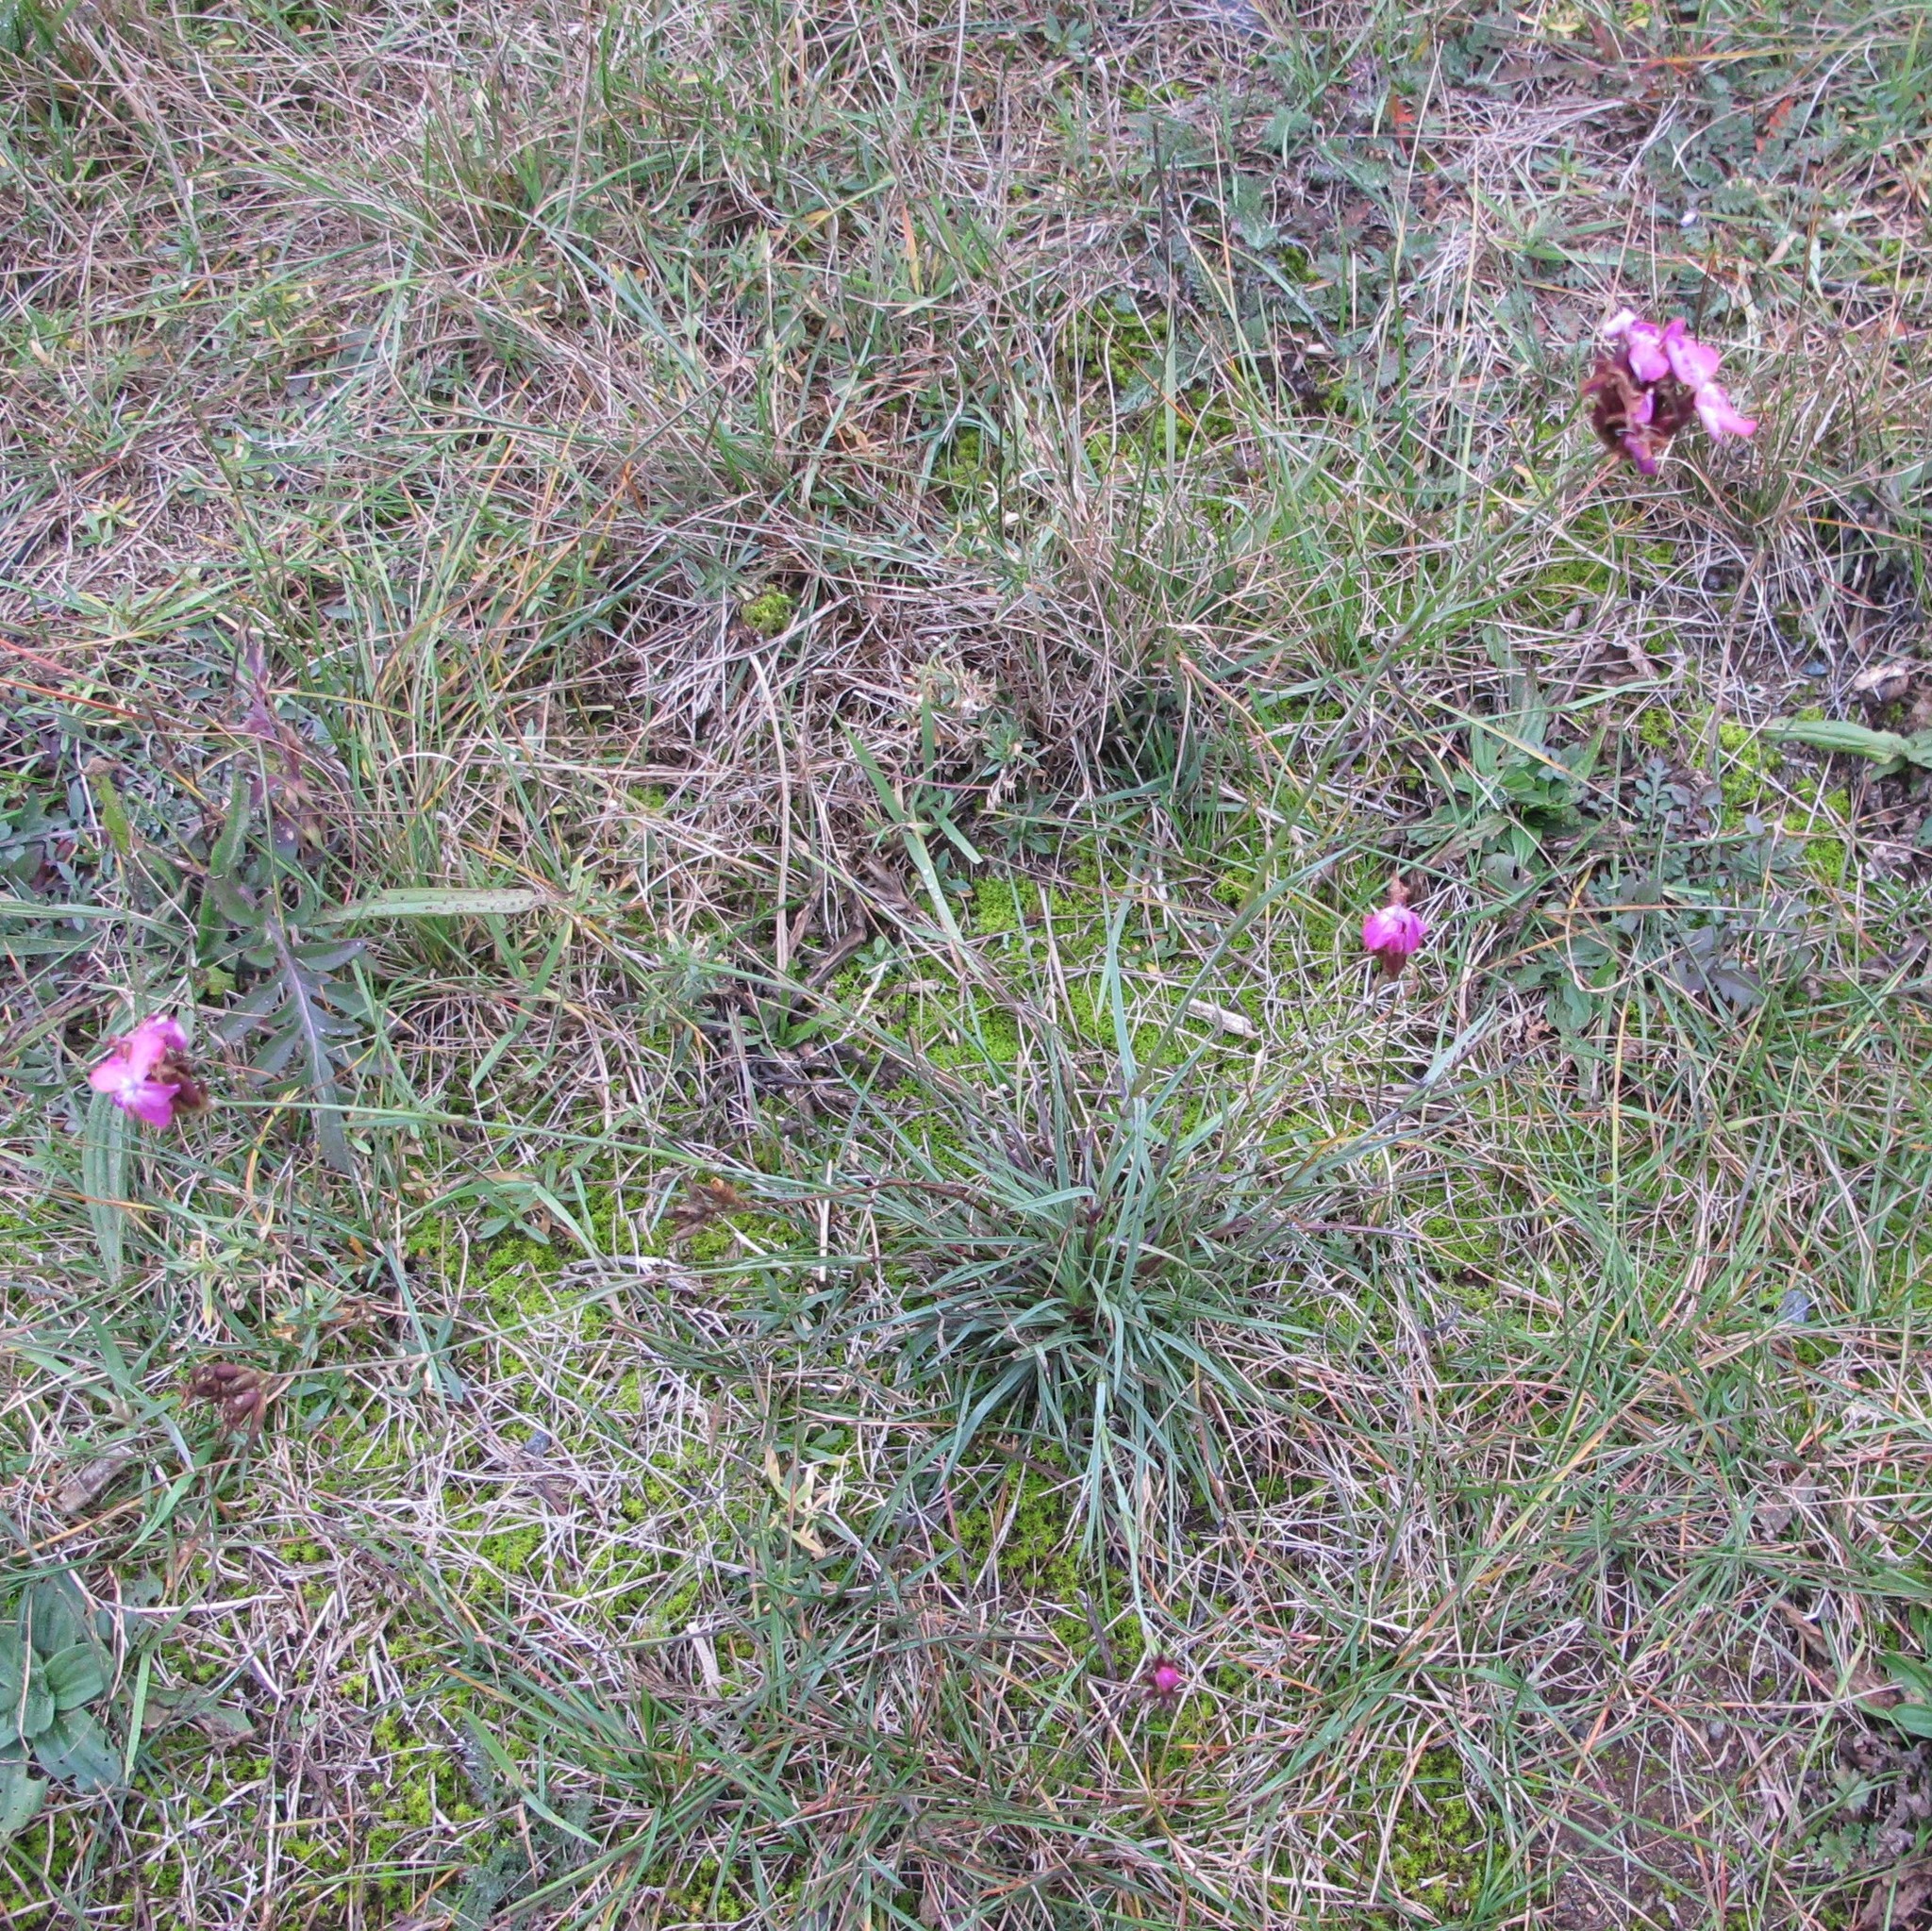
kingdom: Plantae
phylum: Tracheophyta
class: Magnoliopsida
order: Caryophyllales
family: Caryophyllaceae
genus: Dianthus
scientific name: Dianthus carthusianorum
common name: Carthusian pink
